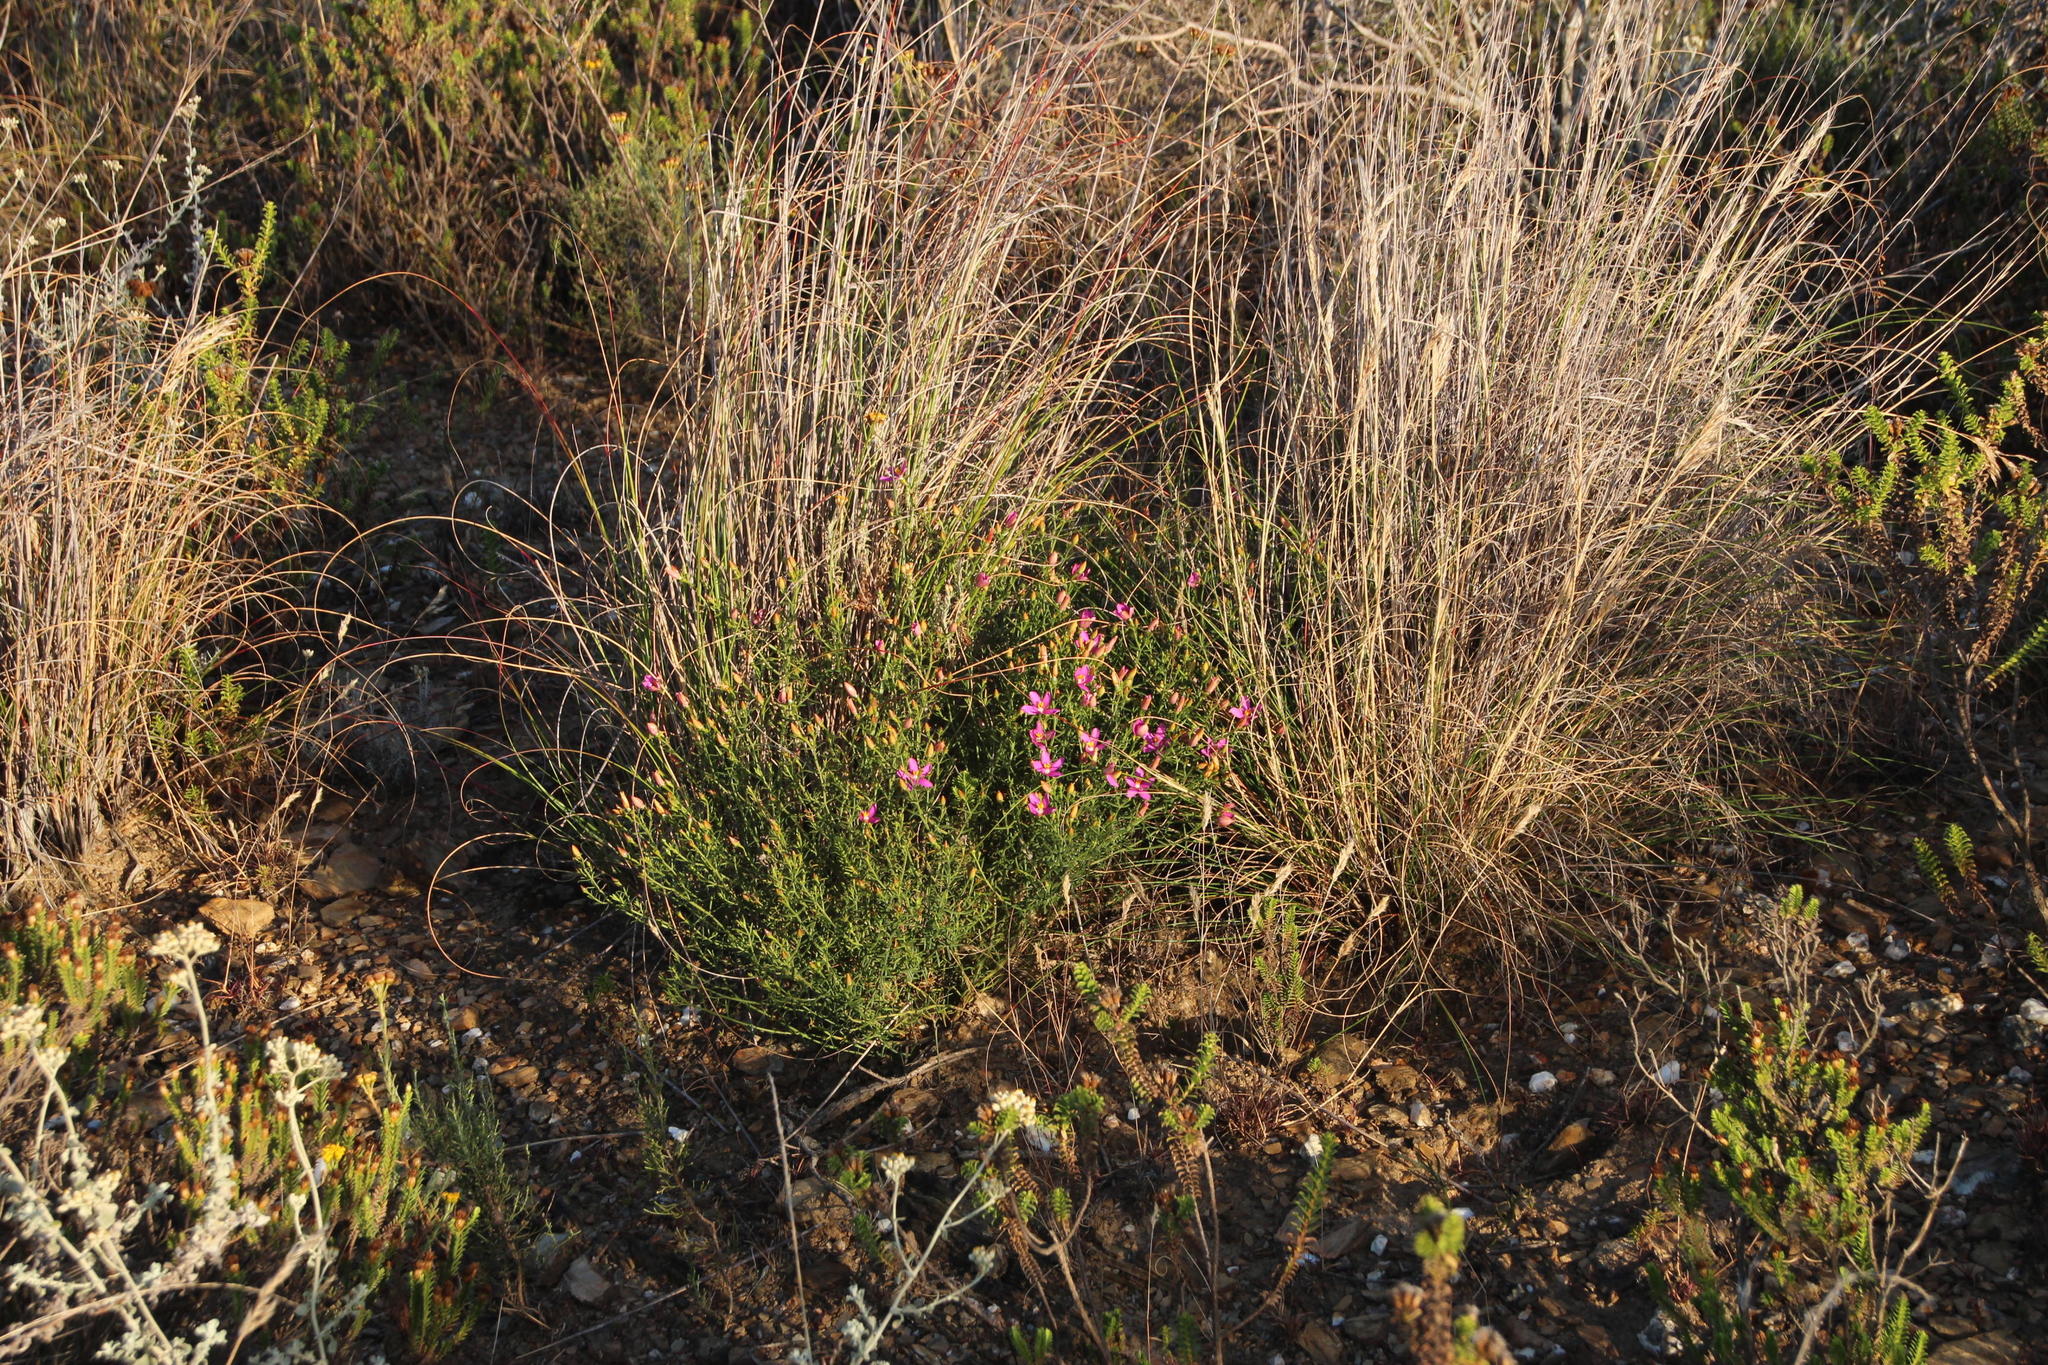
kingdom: Plantae
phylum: Tracheophyta
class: Magnoliopsida
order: Gentianales
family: Gentianaceae
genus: Chironia
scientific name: Chironia baccifera
